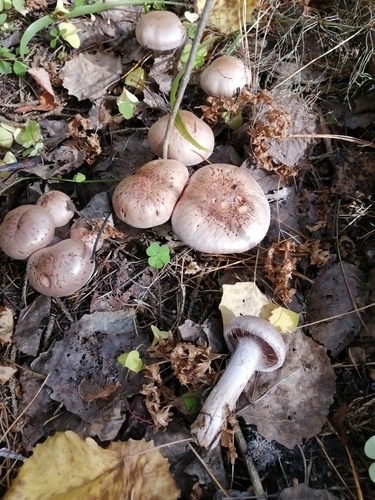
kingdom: Fungi
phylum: Basidiomycota
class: Agaricomycetes
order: Agaricales
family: Cortinariaceae
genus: Cortinarius
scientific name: Cortinarius
